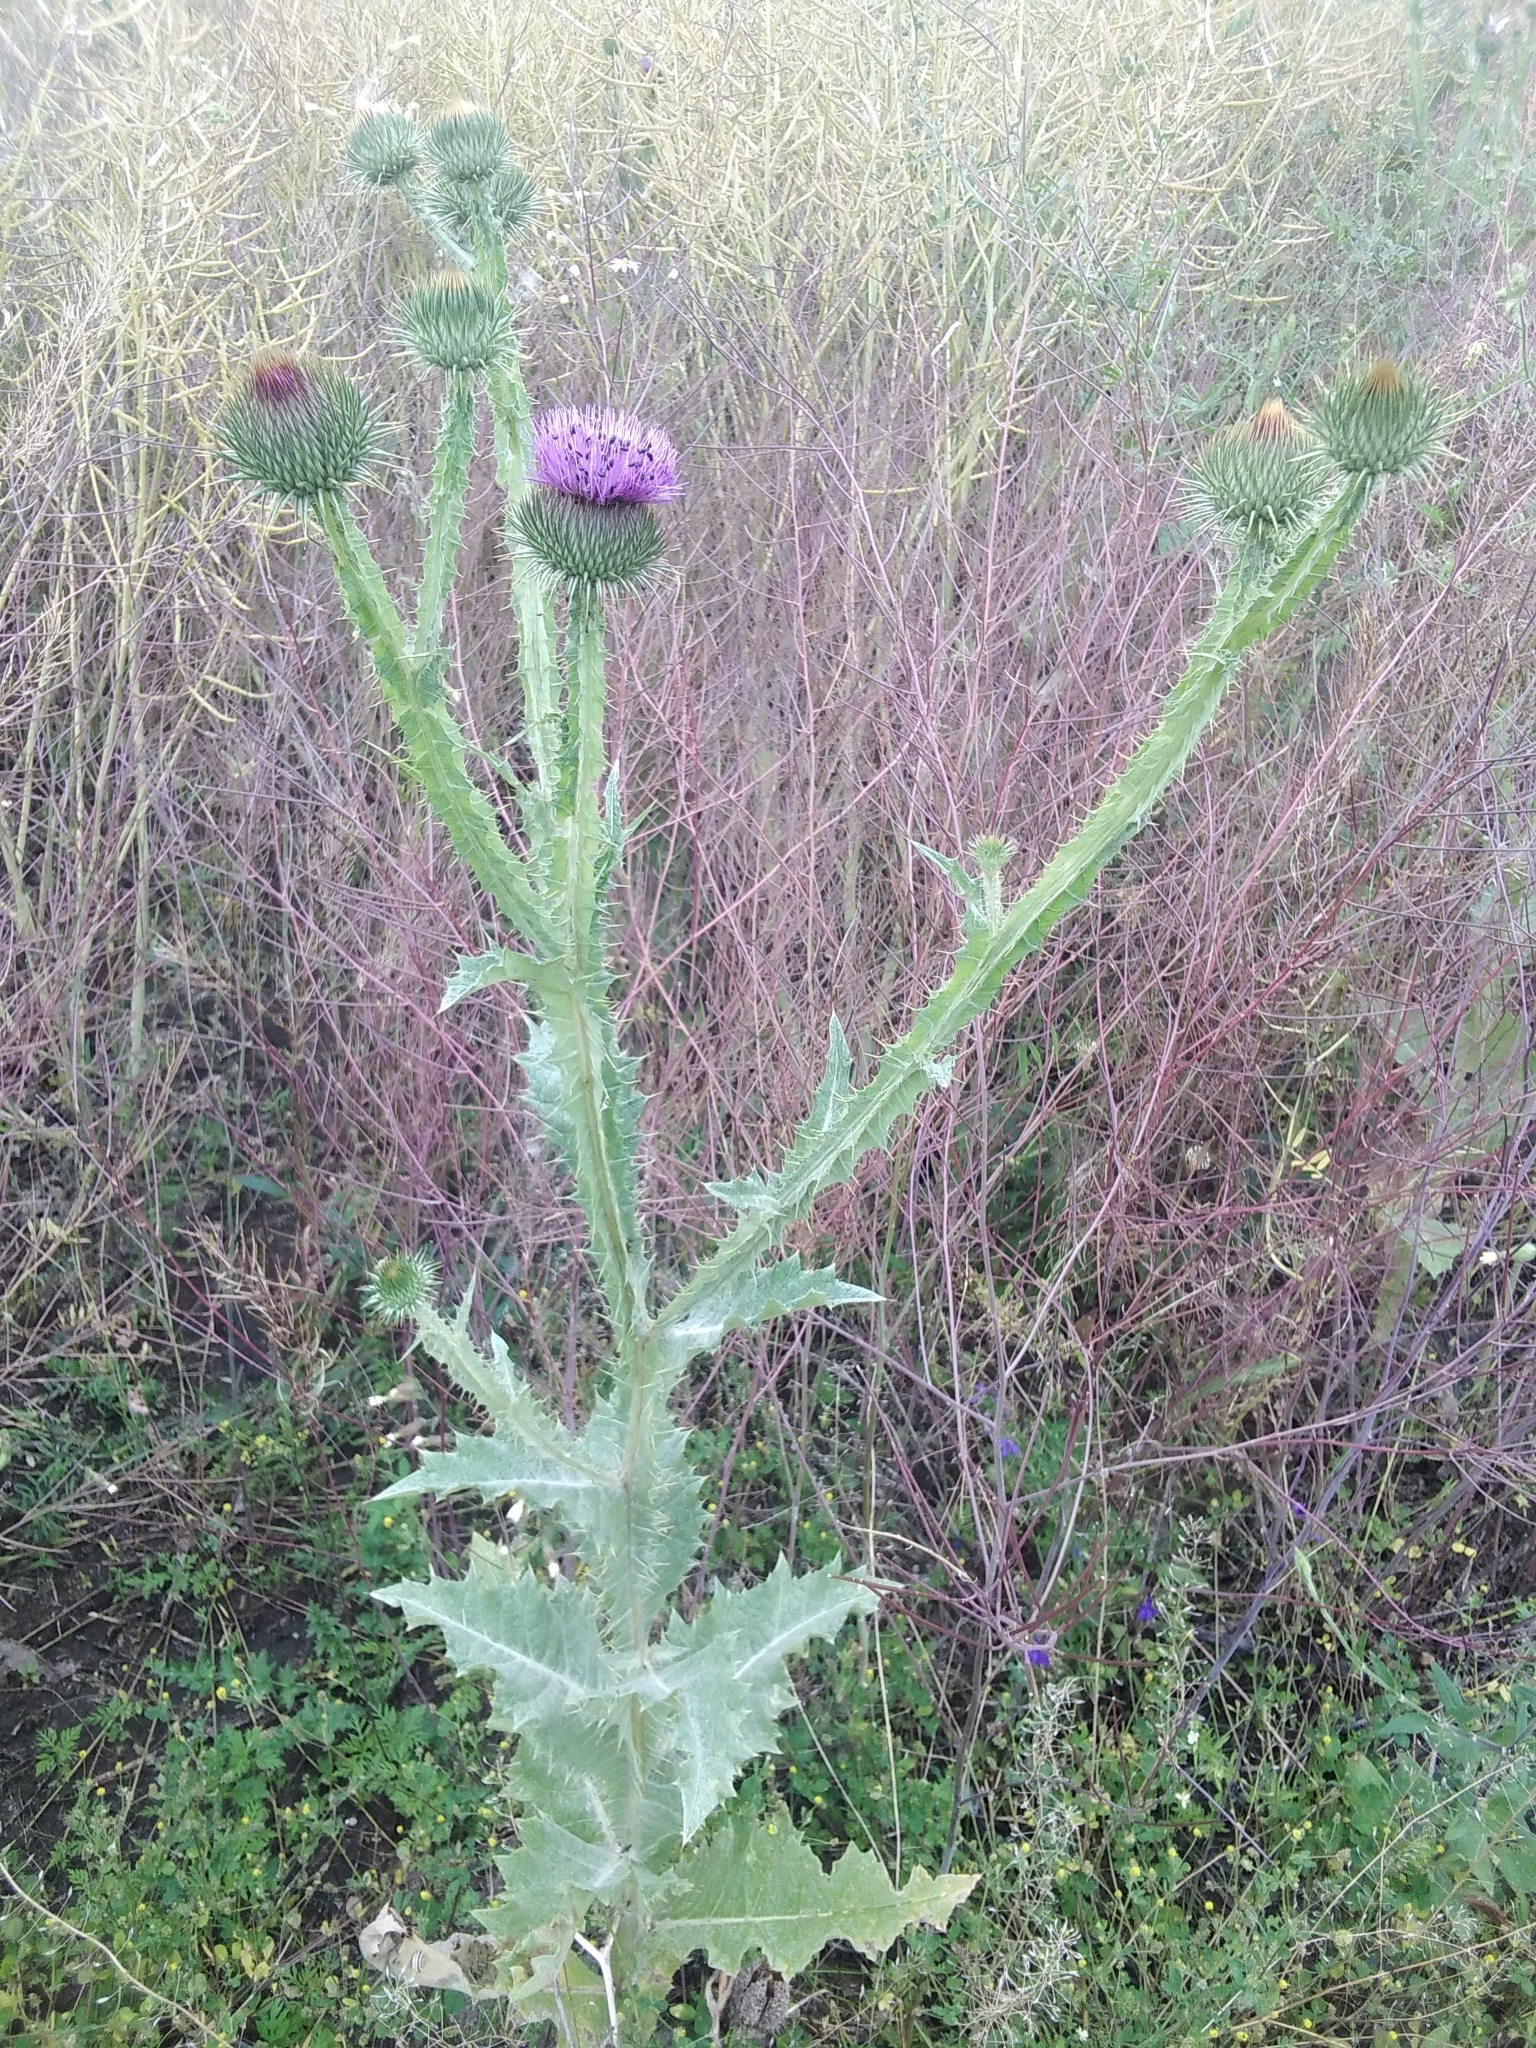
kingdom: Plantae
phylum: Tracheophyta
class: Magnoliopsida
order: Asterales
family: Asteraceae
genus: Onopordum
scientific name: Onopordum acanthium
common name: Scotch thistle
